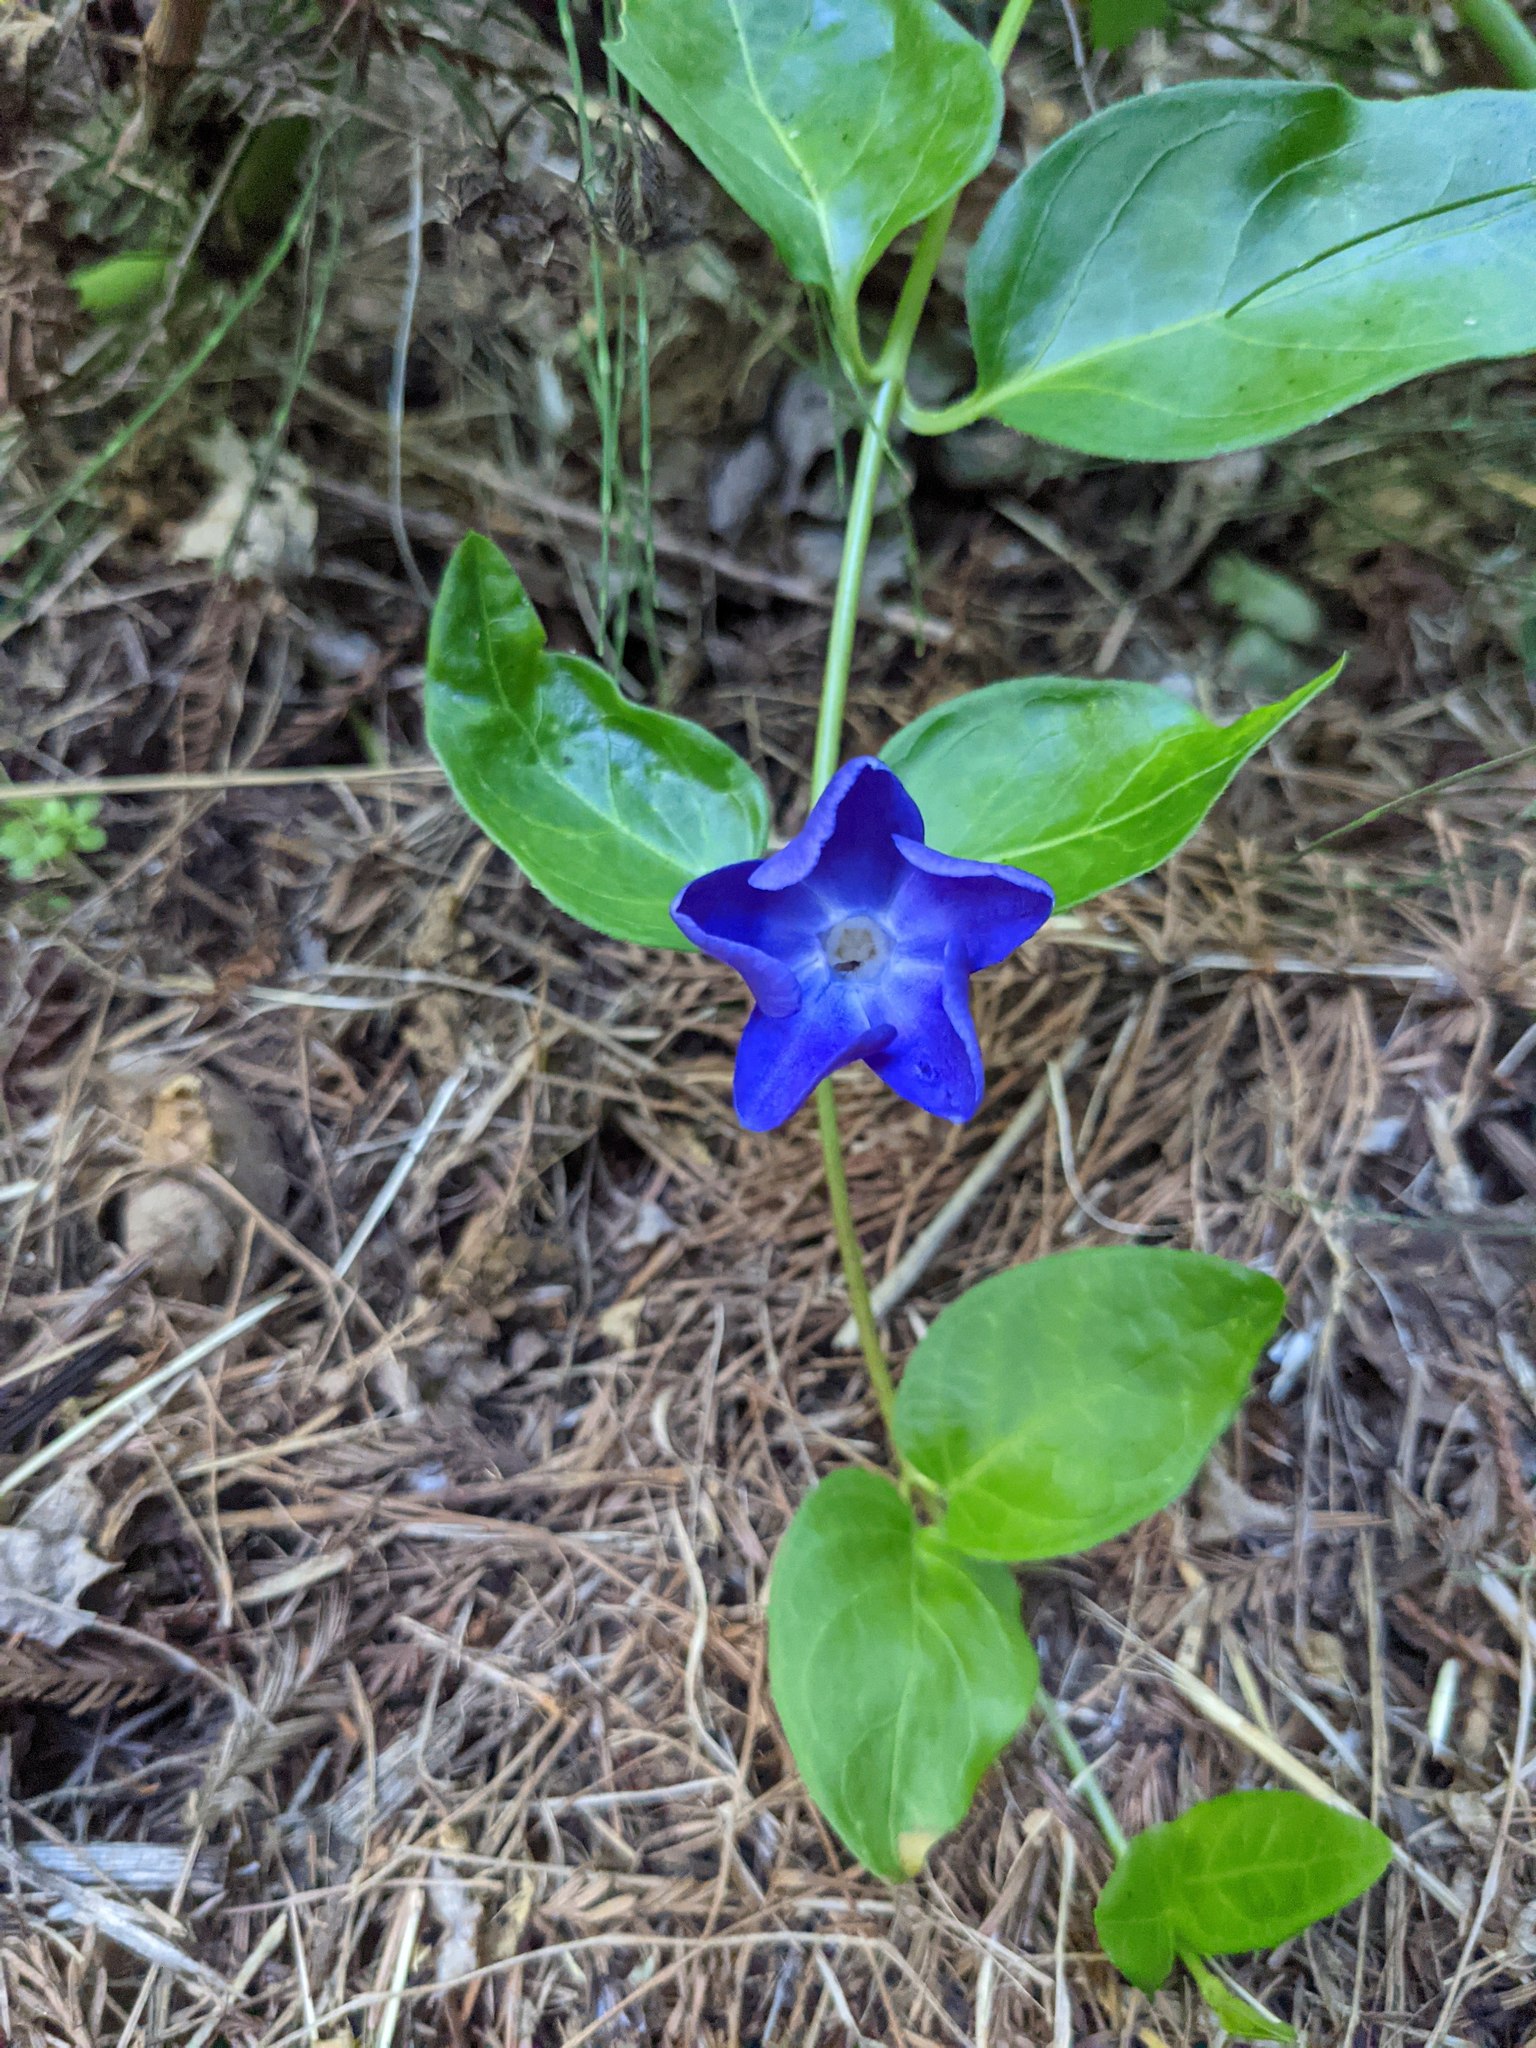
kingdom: Plantae
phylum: Tracheophyta
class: Magnoliopsida
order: Gentianales
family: Apocynaceae
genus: Vinca
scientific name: Vinca major
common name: Greater periwinkle
